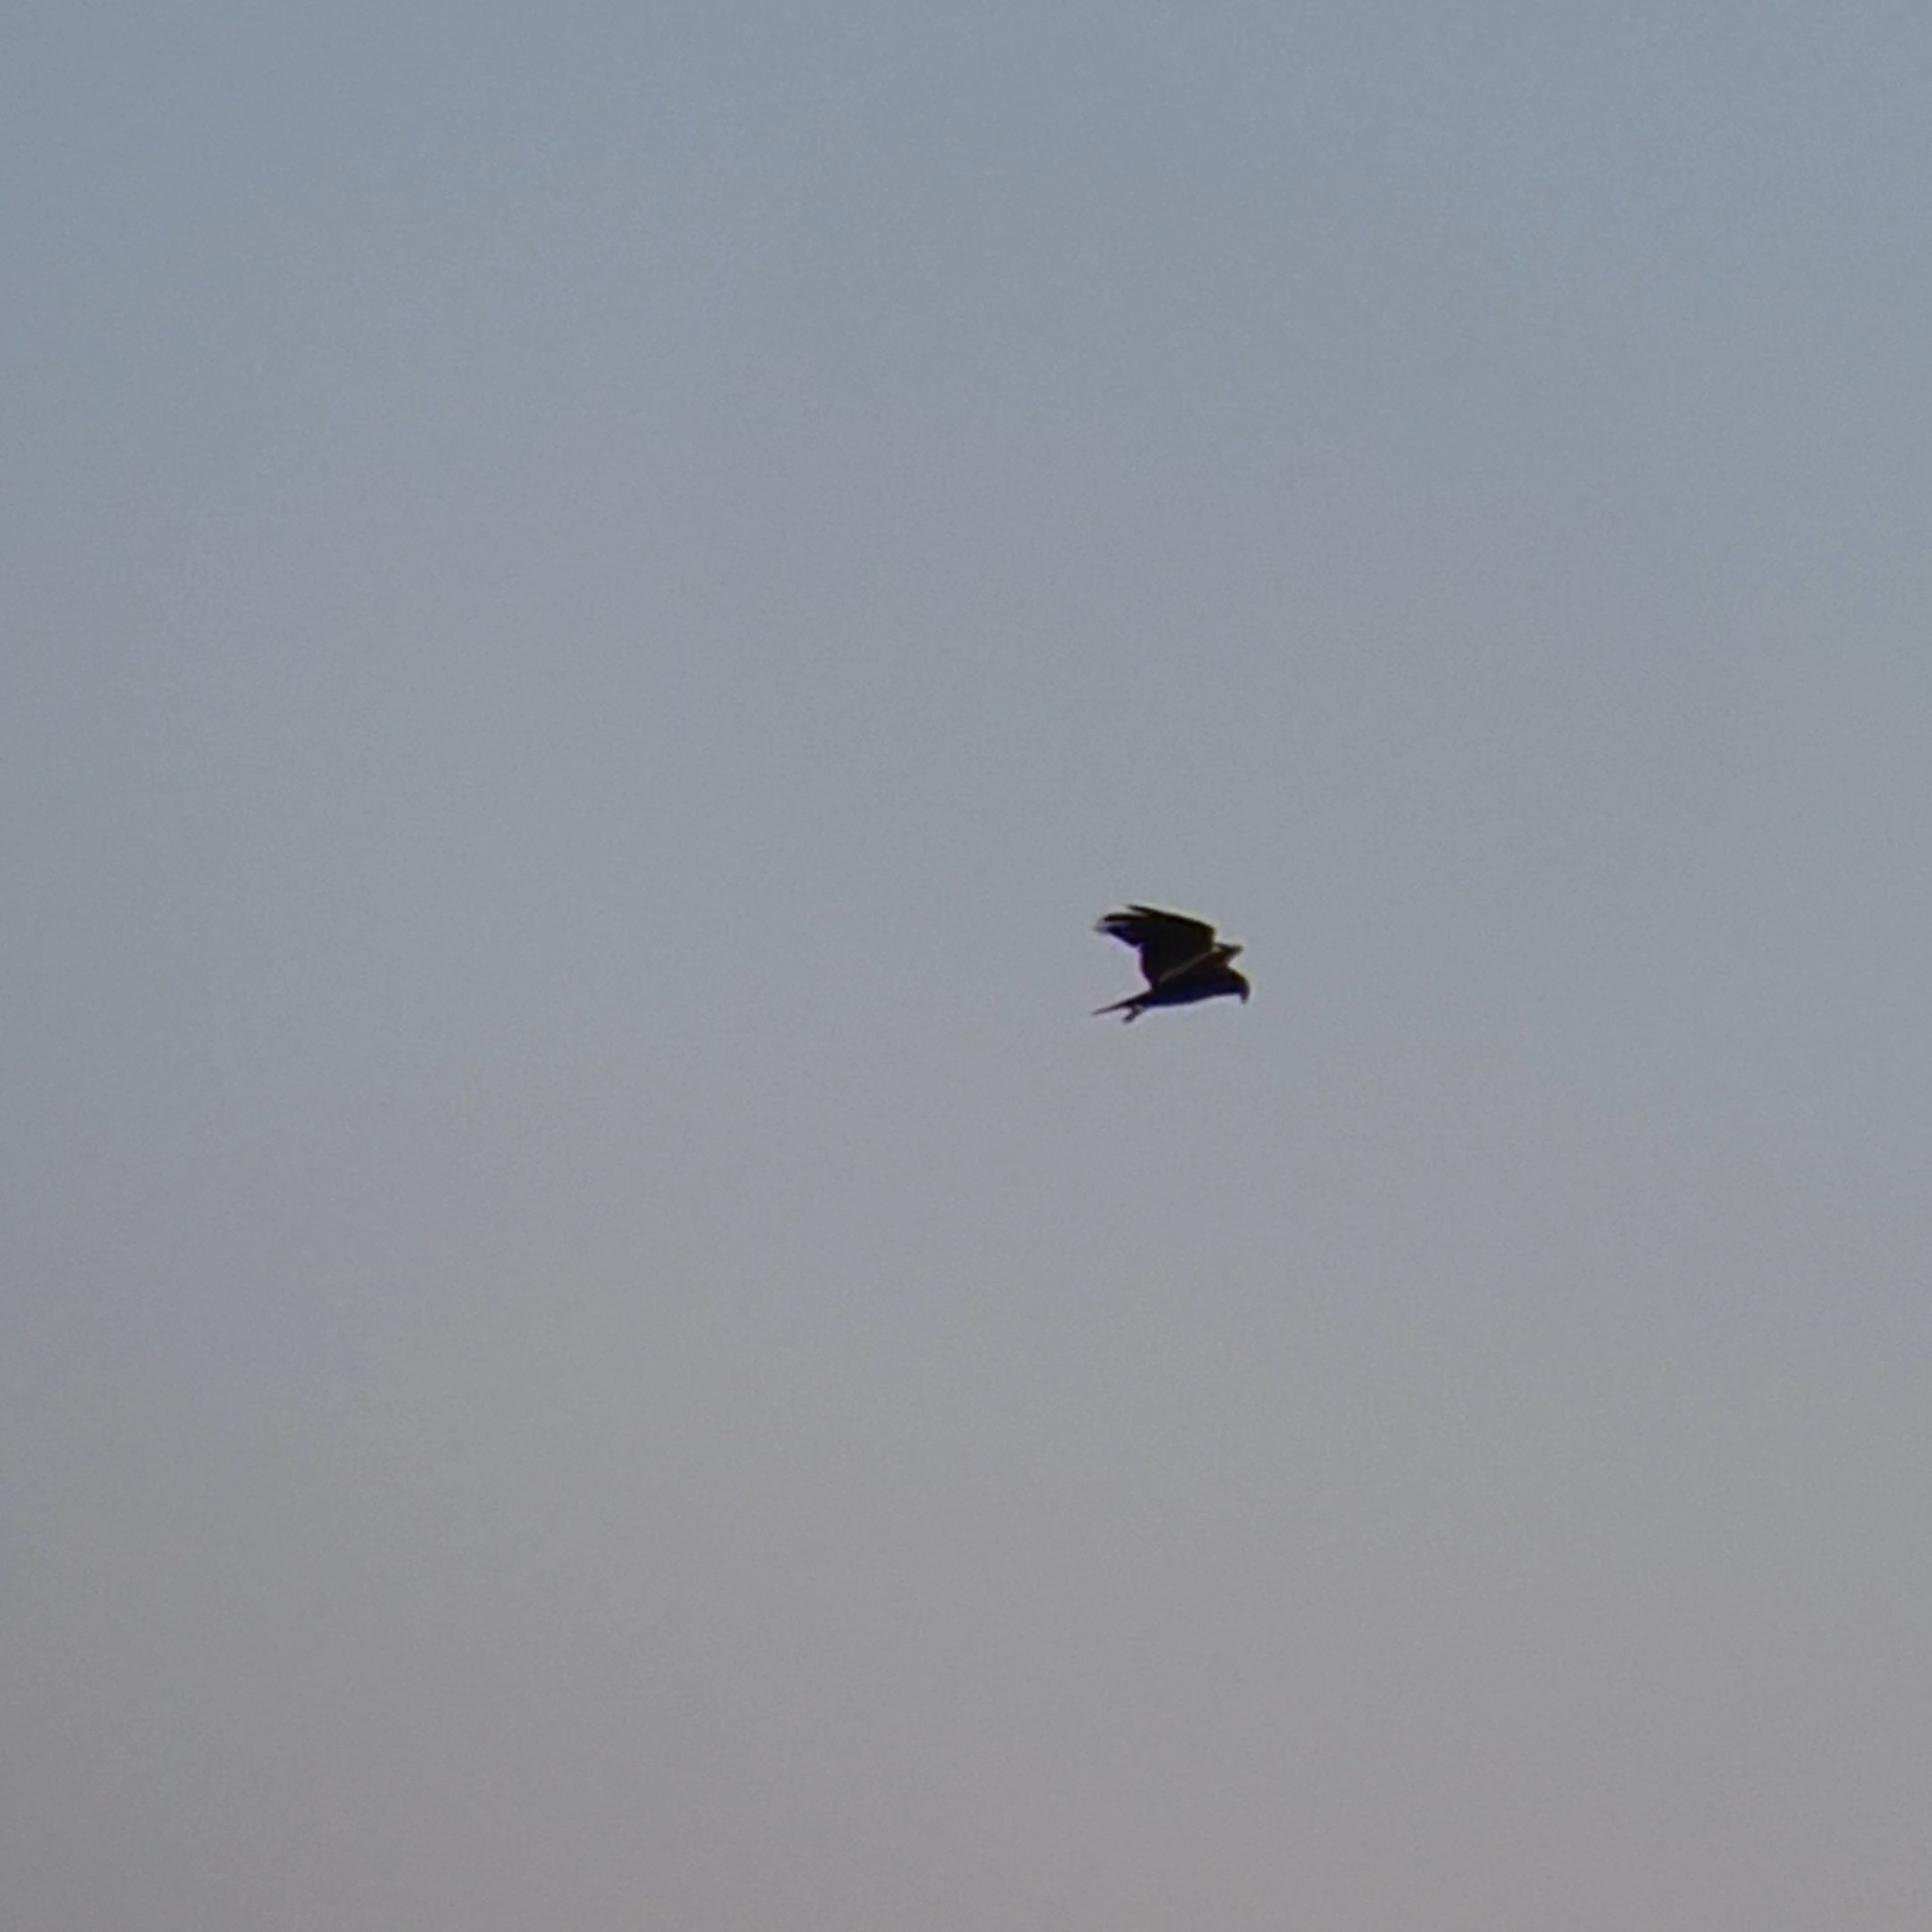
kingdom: Animalia
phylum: Chordata
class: Aves
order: Accipitriformes
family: Accipitridae
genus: Circus
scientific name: Circus aeruginosus
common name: Western marsh harrier
